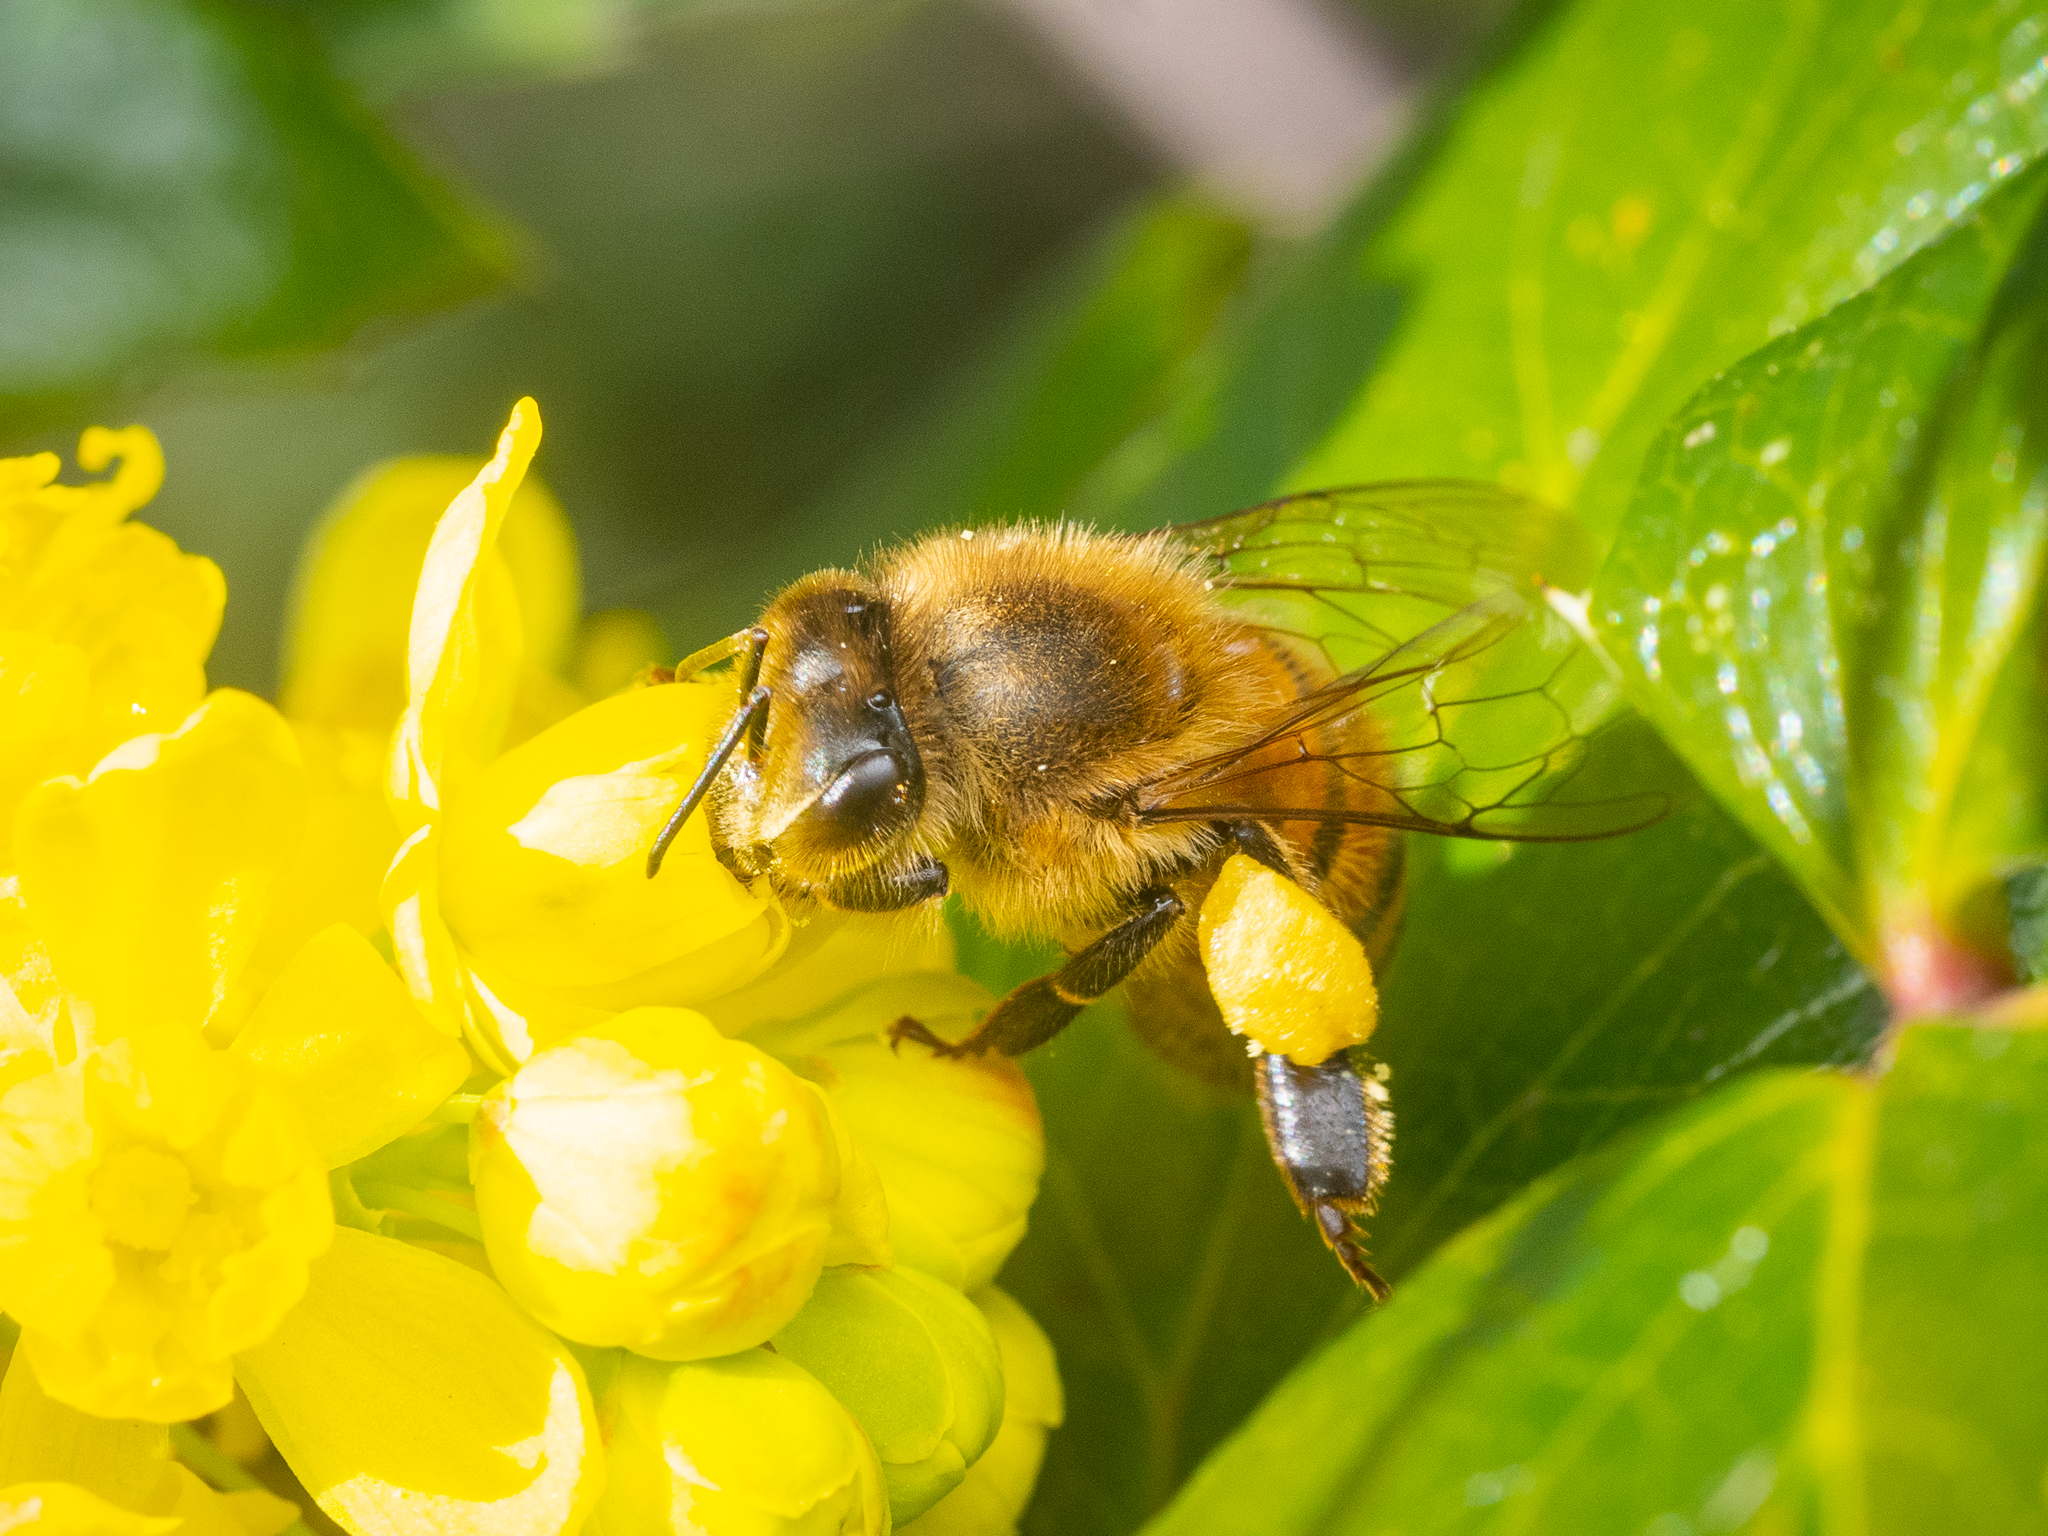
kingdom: Animalia
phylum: Arthropoda
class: Insecta
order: Hymenoptera
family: Apidae
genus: Apis
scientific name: Apis mellifera
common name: Honey bee
